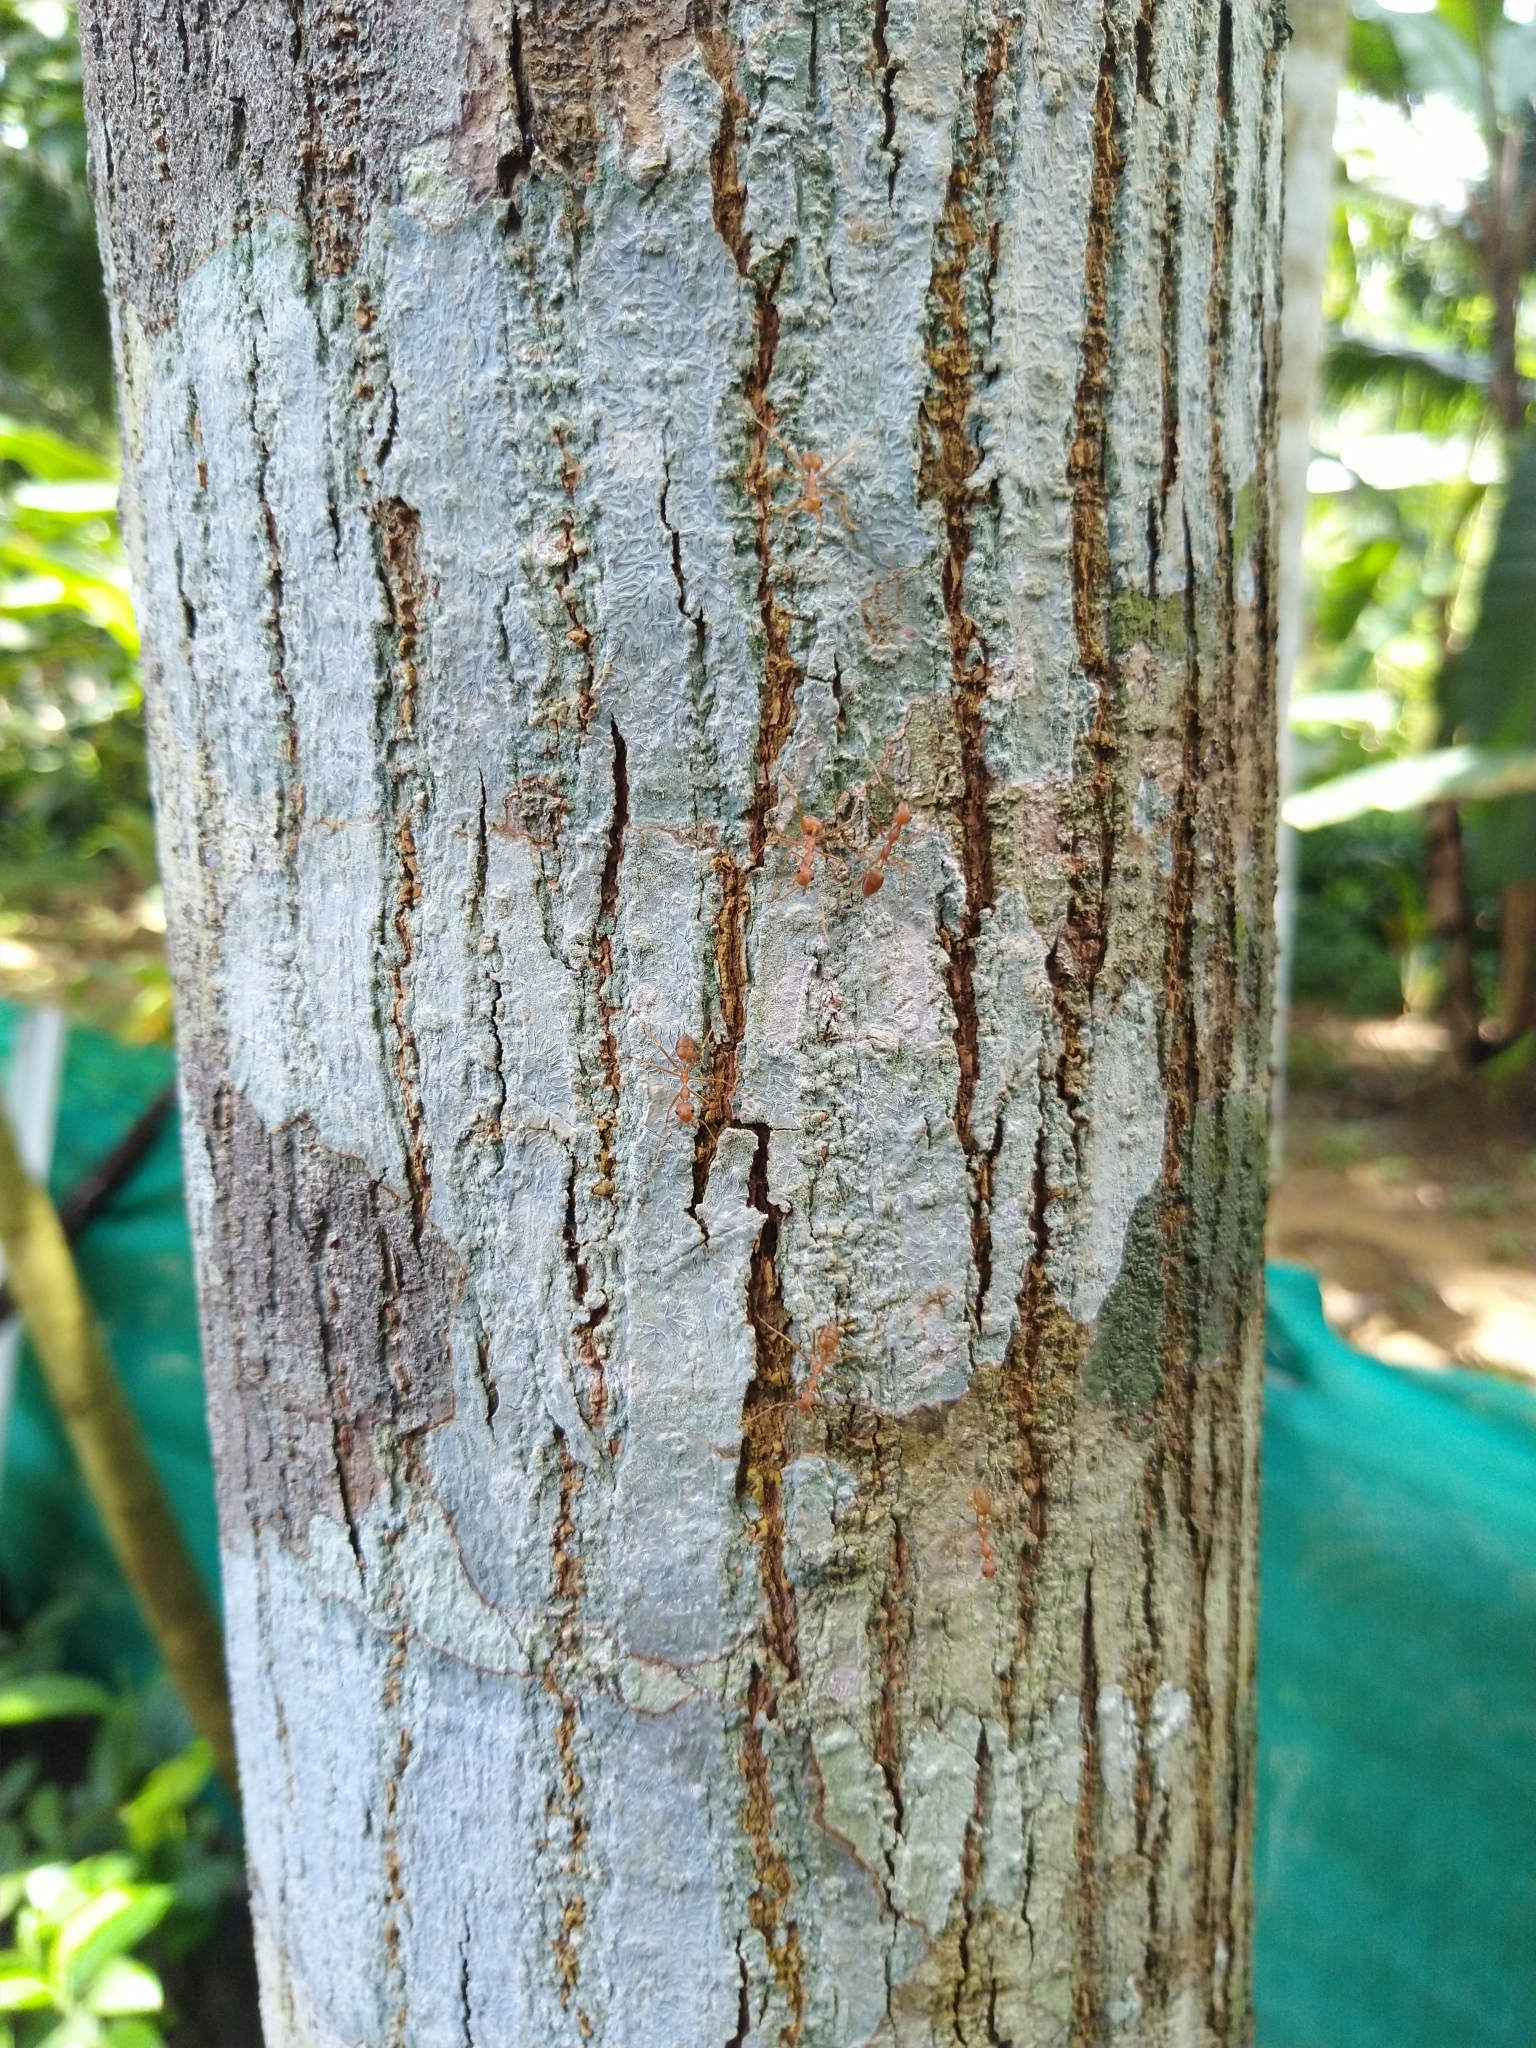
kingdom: Animalia
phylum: Arthropoda
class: Insecta
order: Hymenoptera
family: Formicidae
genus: Oecophylla
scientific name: Oecophylla smaragdina
